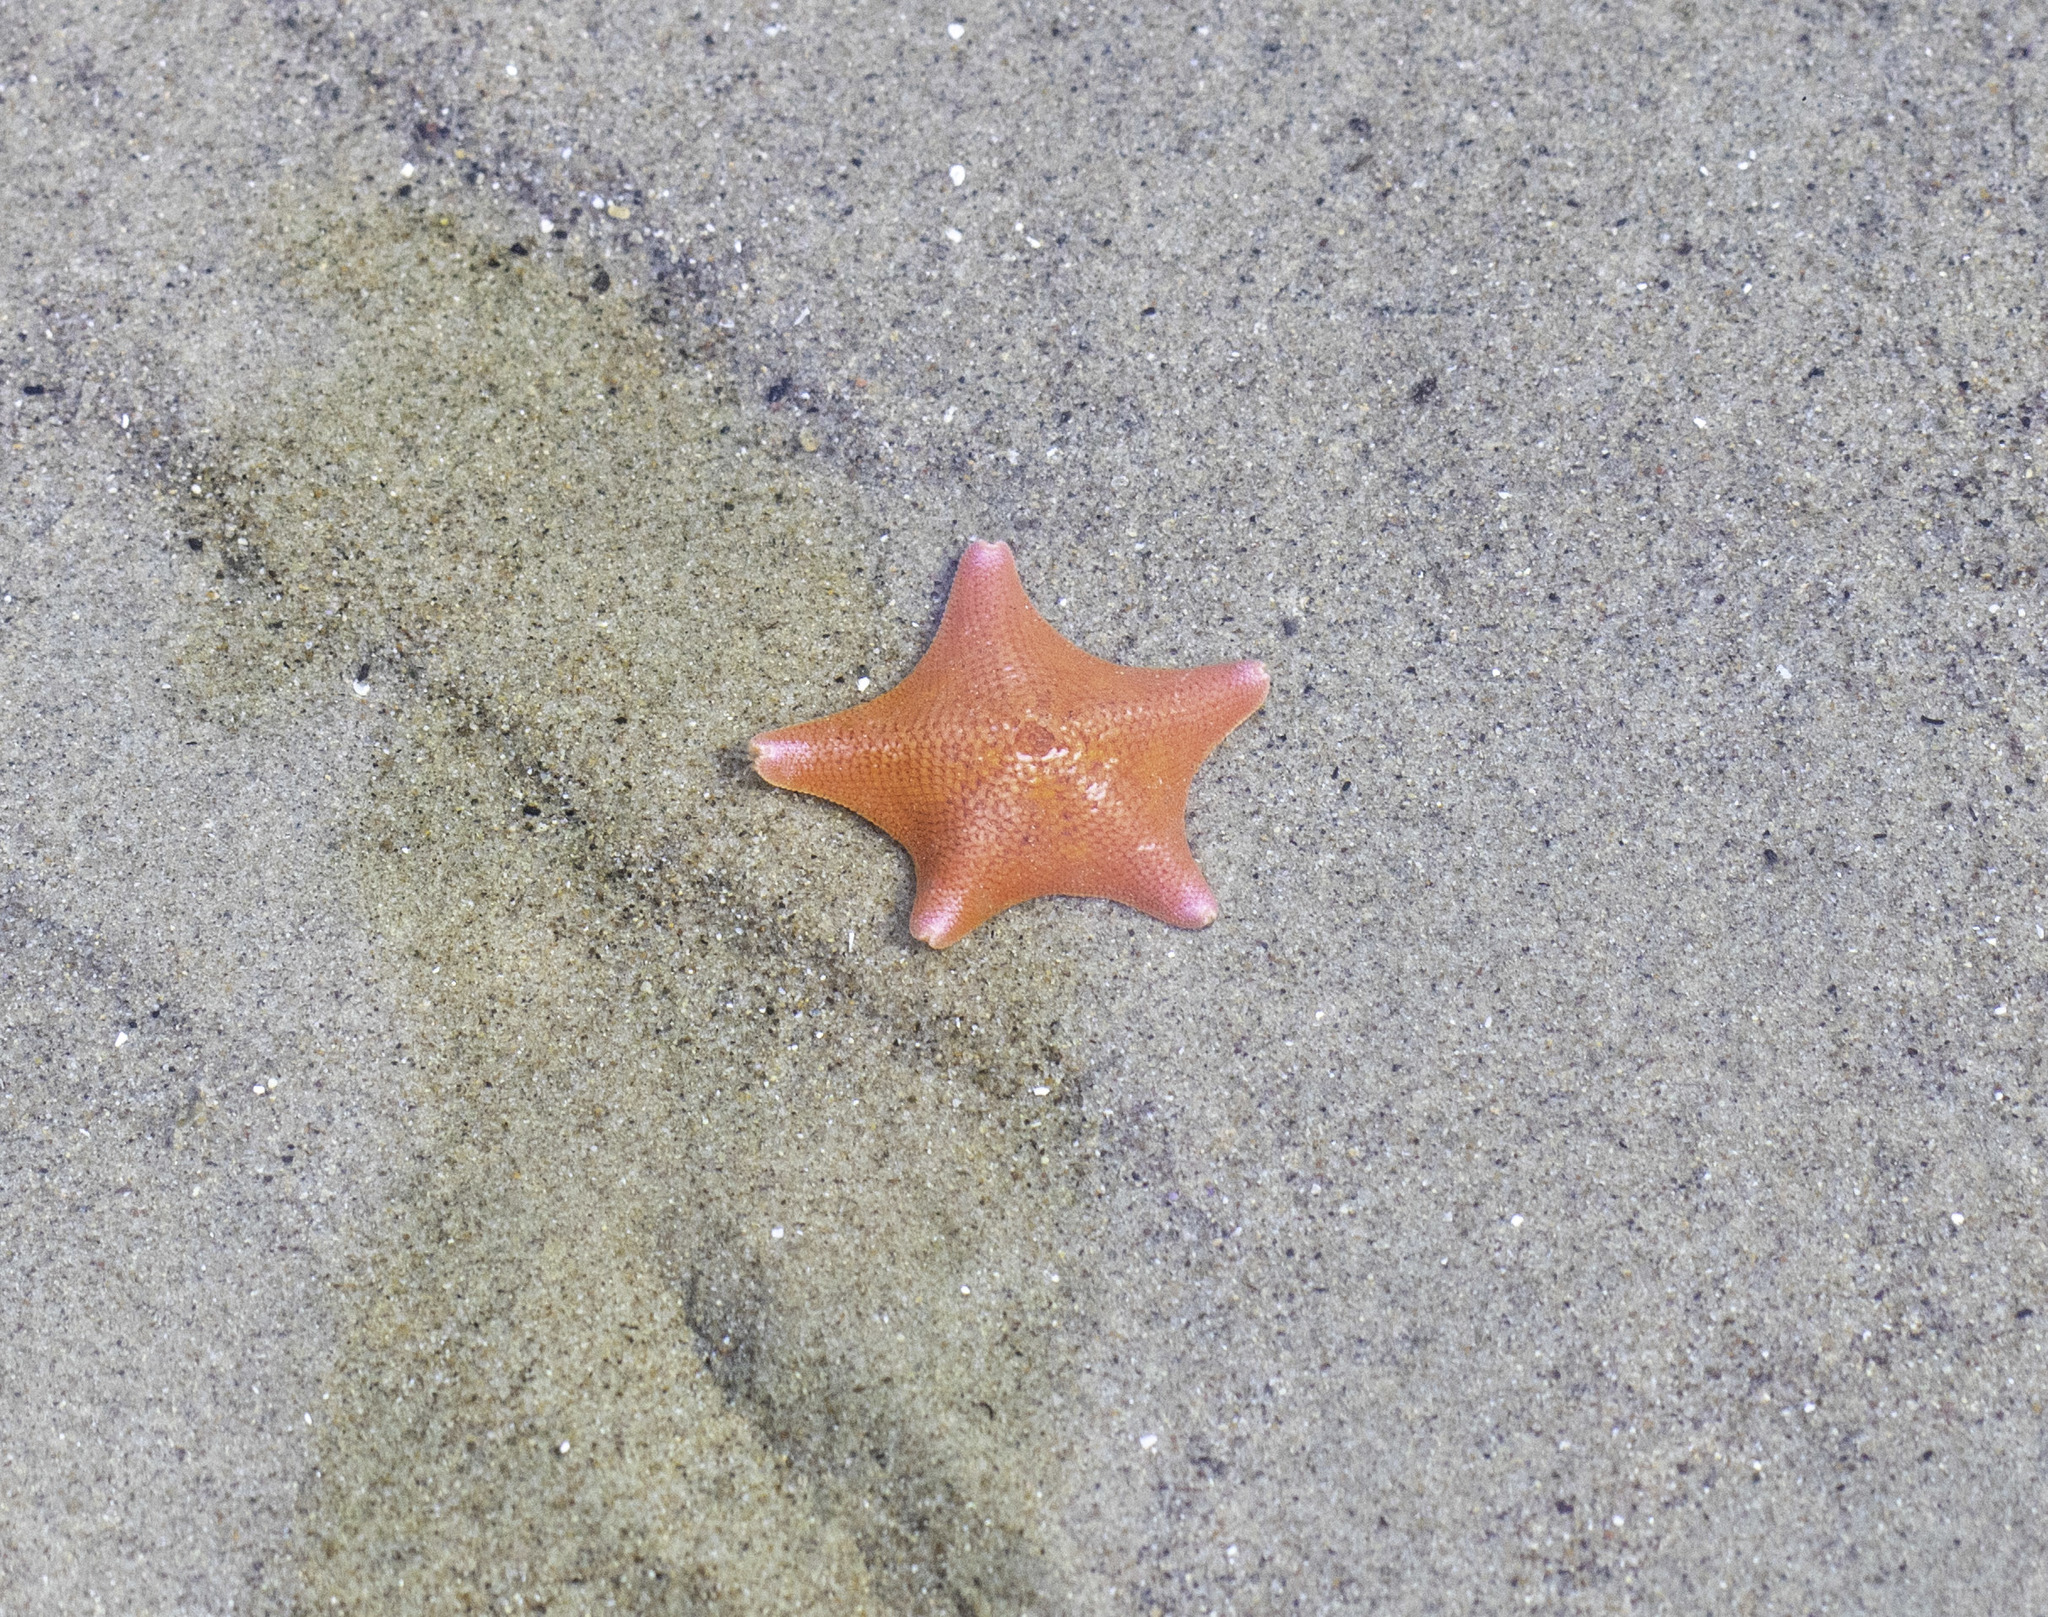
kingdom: Animalia
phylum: Echinodermata
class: Asteroidea
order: Valvatida
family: Asterinidae
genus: Patiria
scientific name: Patiria miniata
